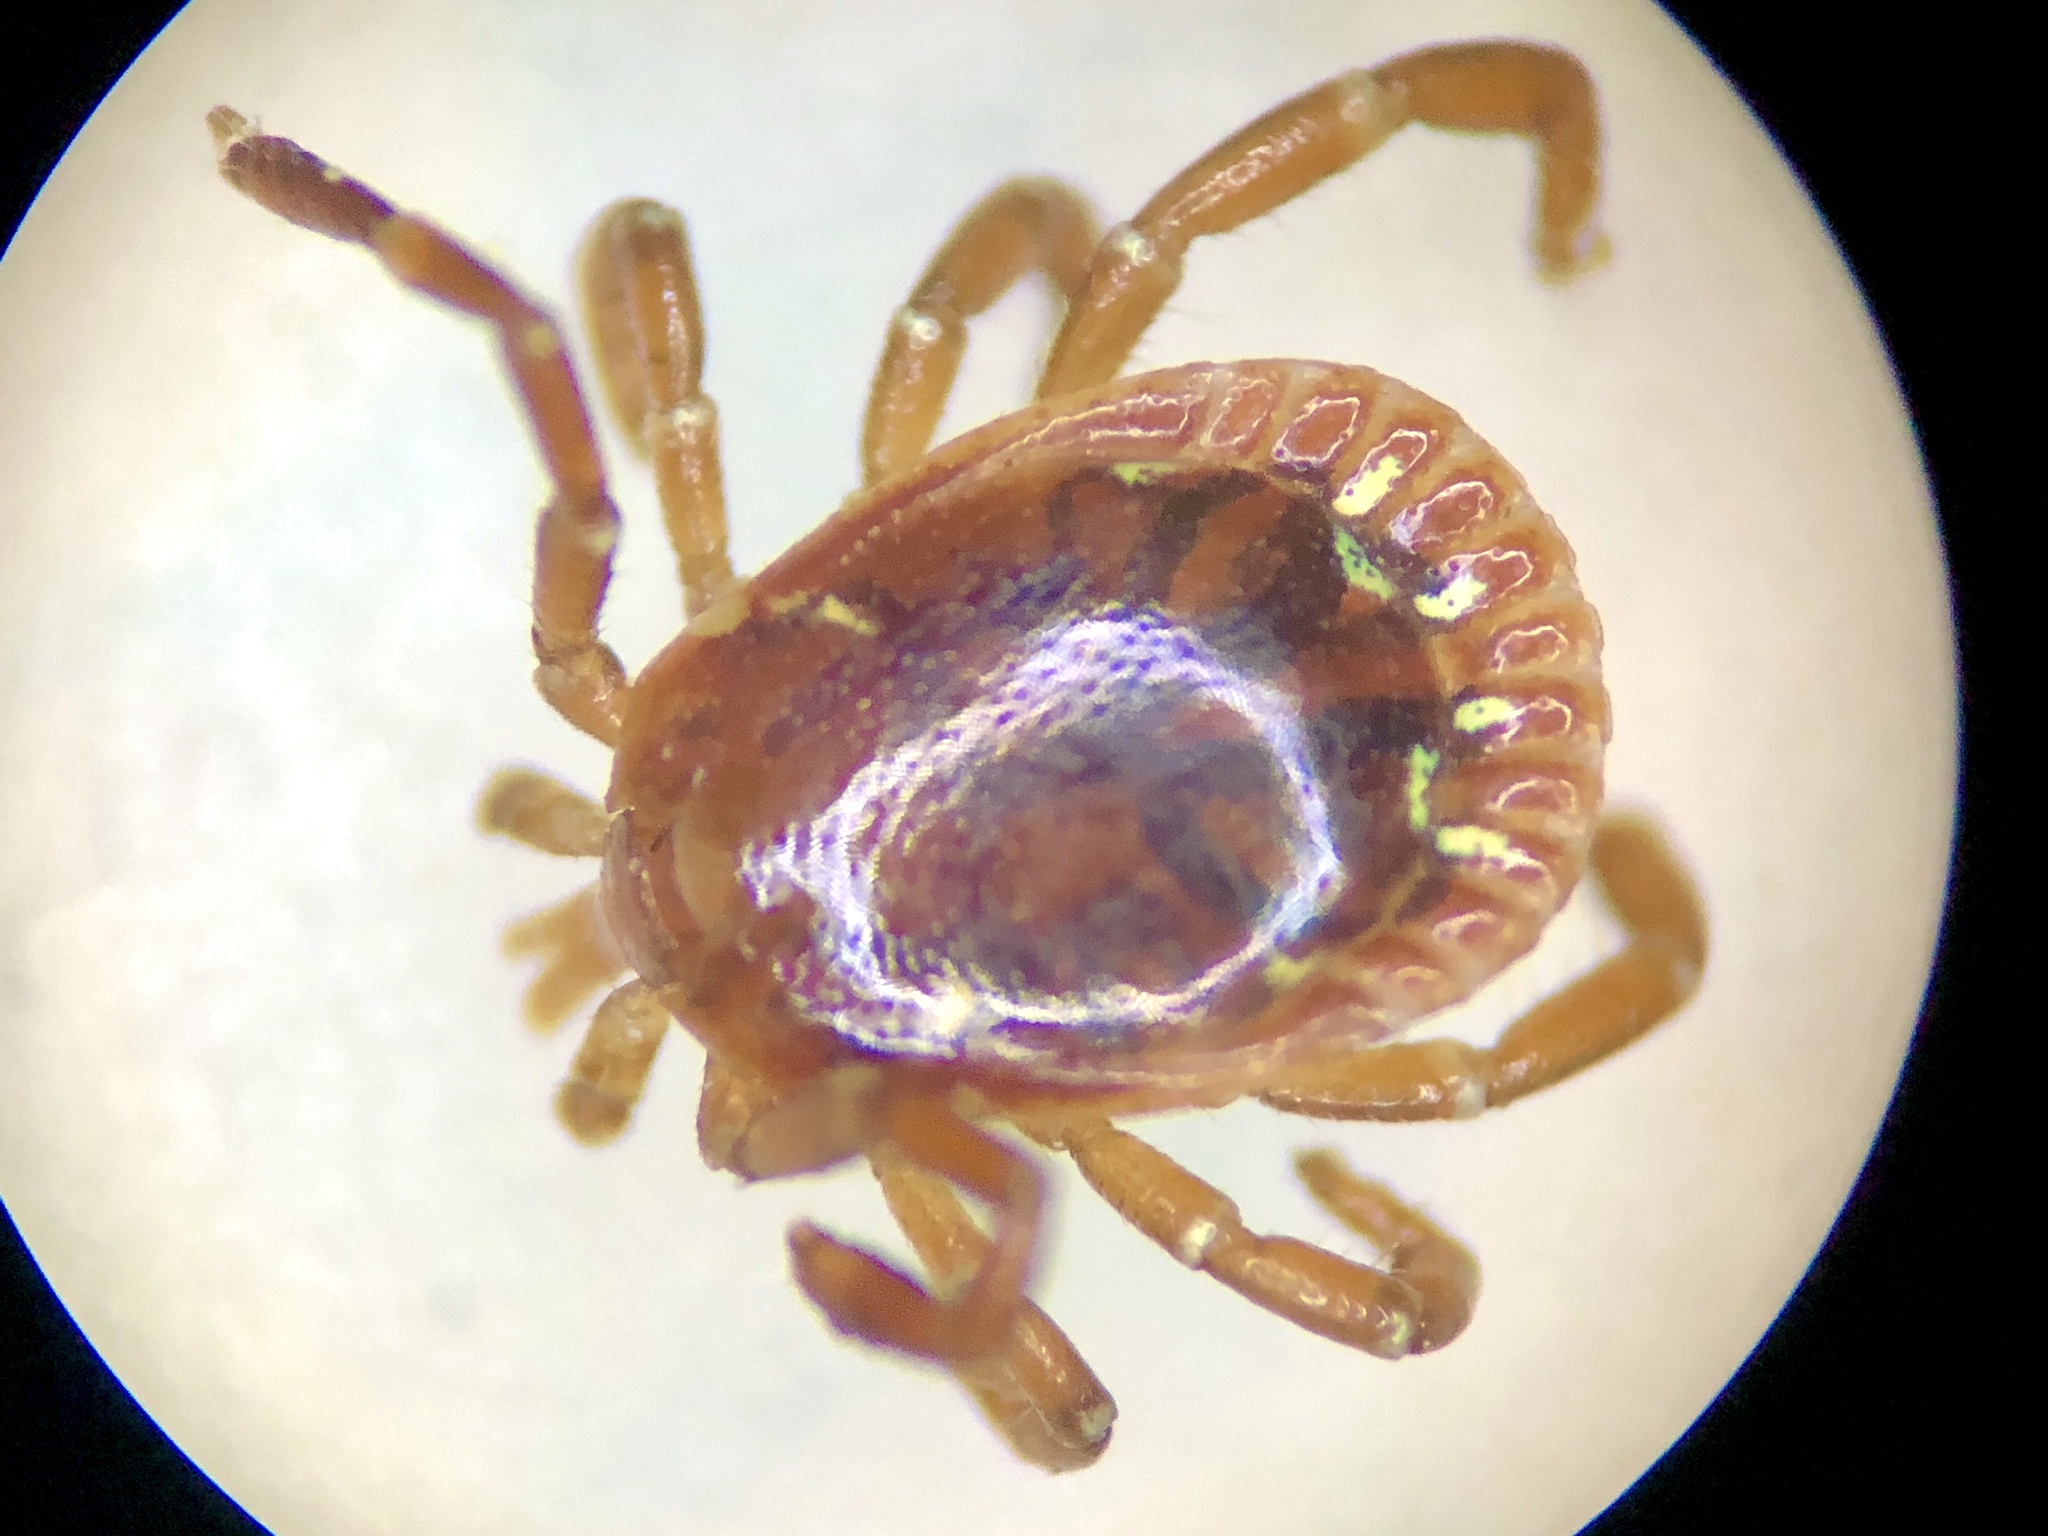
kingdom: Animalia
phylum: Arthropoda
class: Arachnida
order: Ixodida
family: Ixodidae
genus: Amblyomma
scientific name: Amblyomma americanum
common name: Lone star tick
